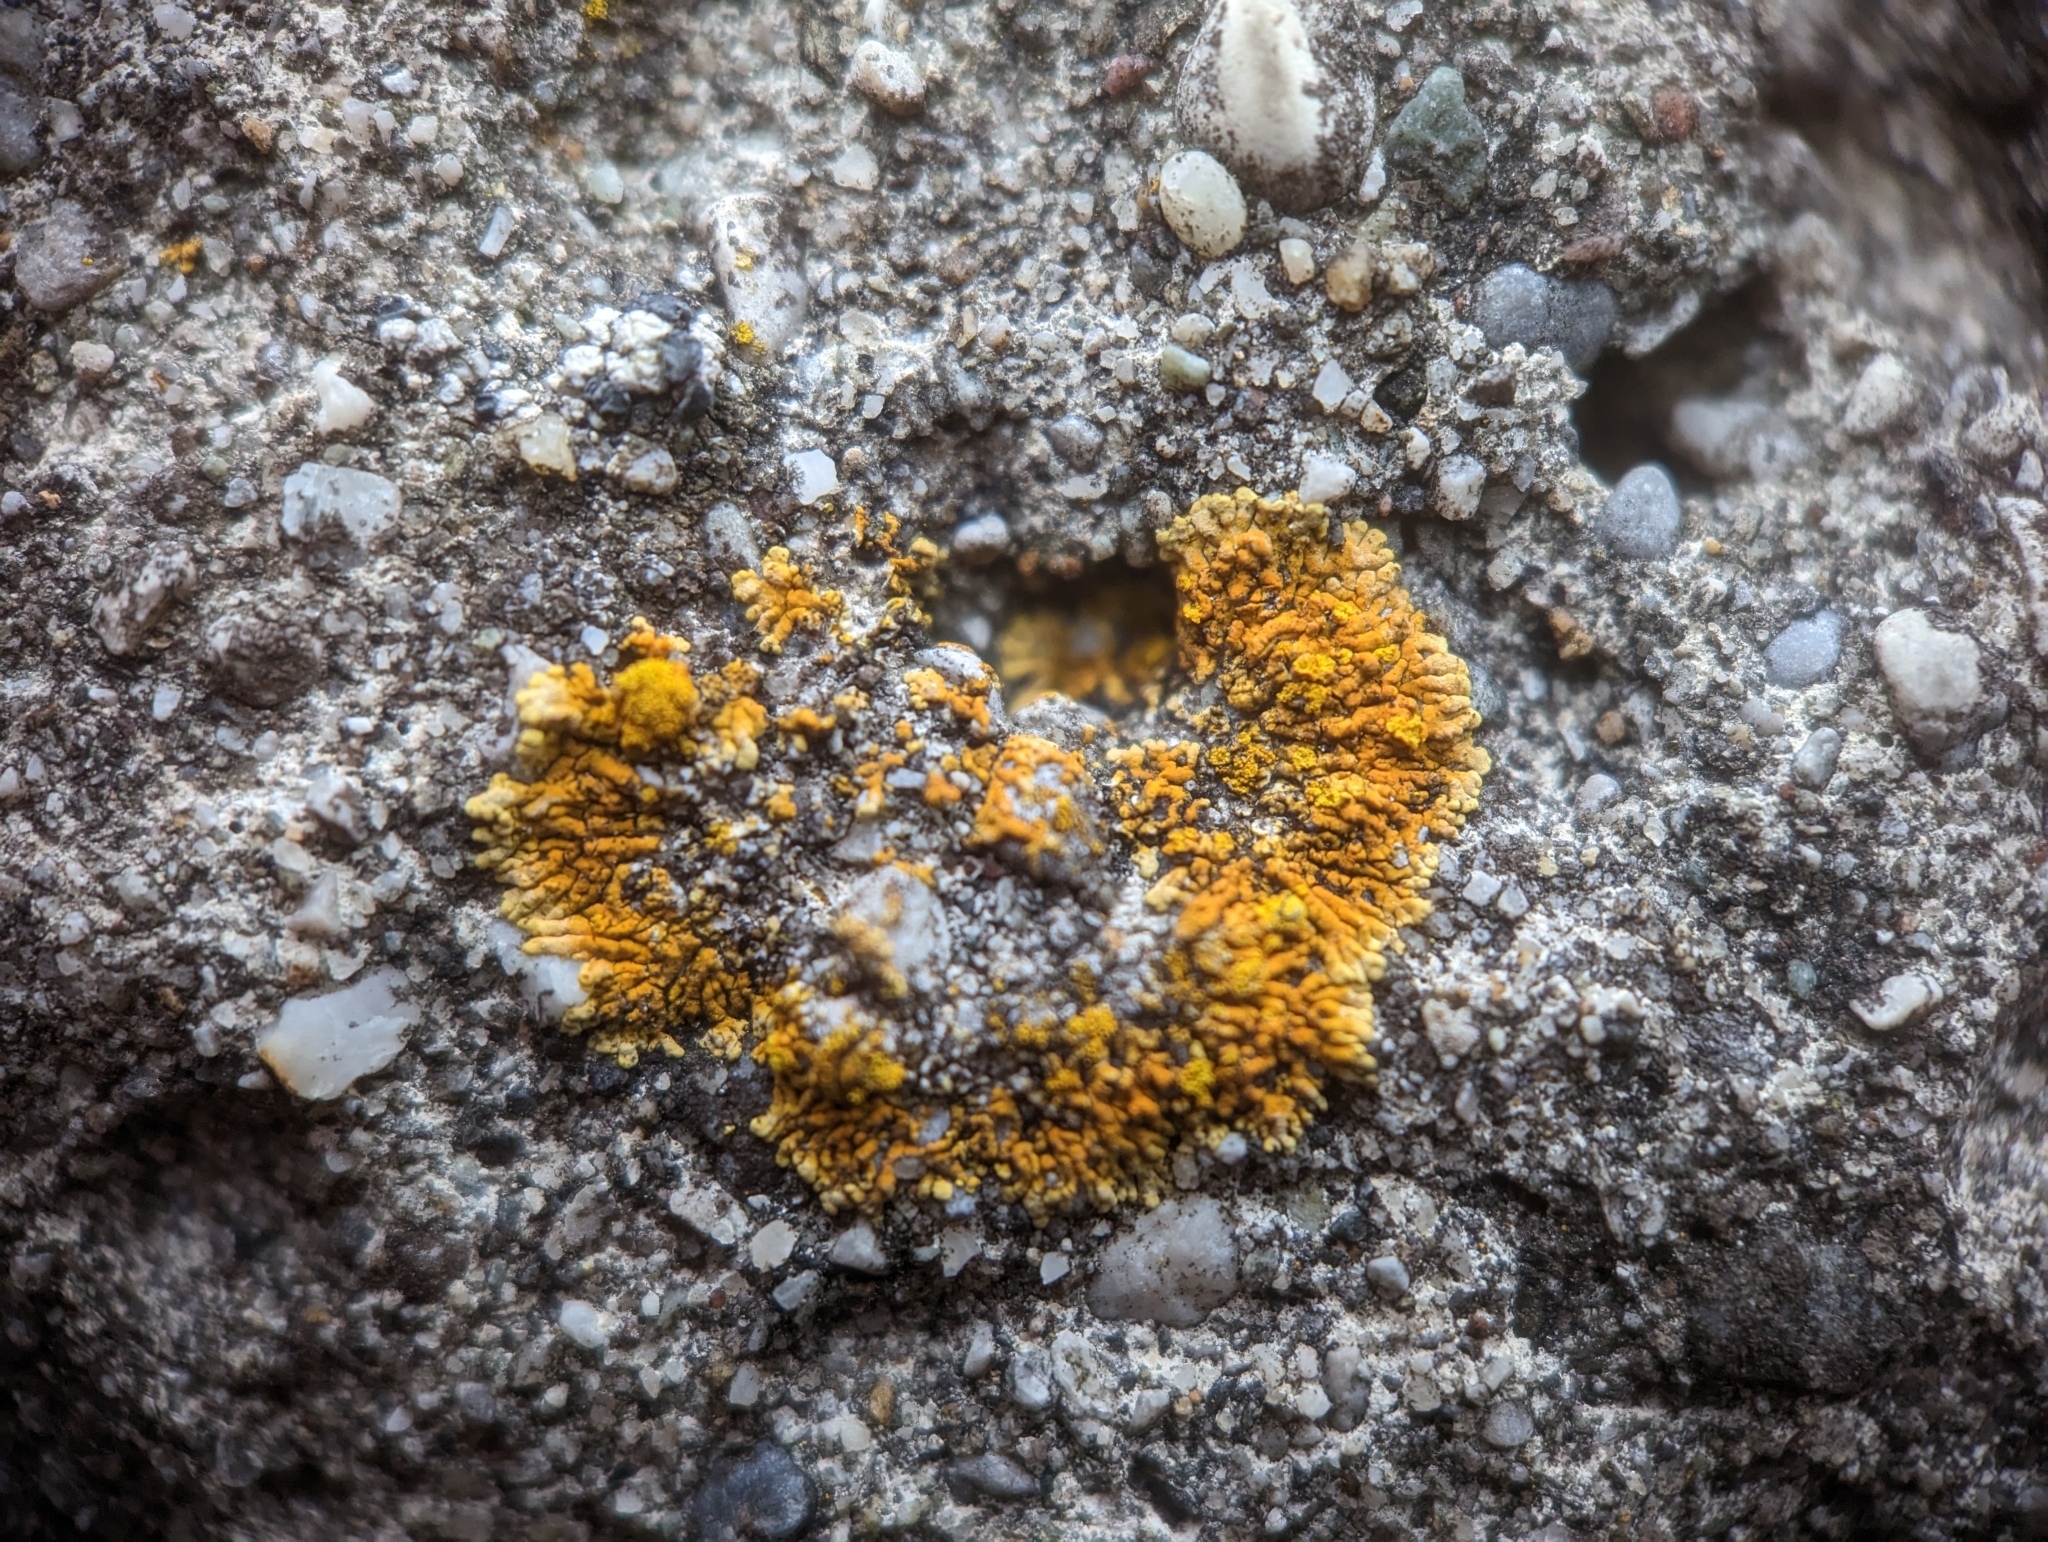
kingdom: Fungi
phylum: Ascomycota
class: Lecanoromycetes
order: Teloschistales
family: Teloschistaceae
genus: Leproplaca
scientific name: Leproplaca cirrochroa
